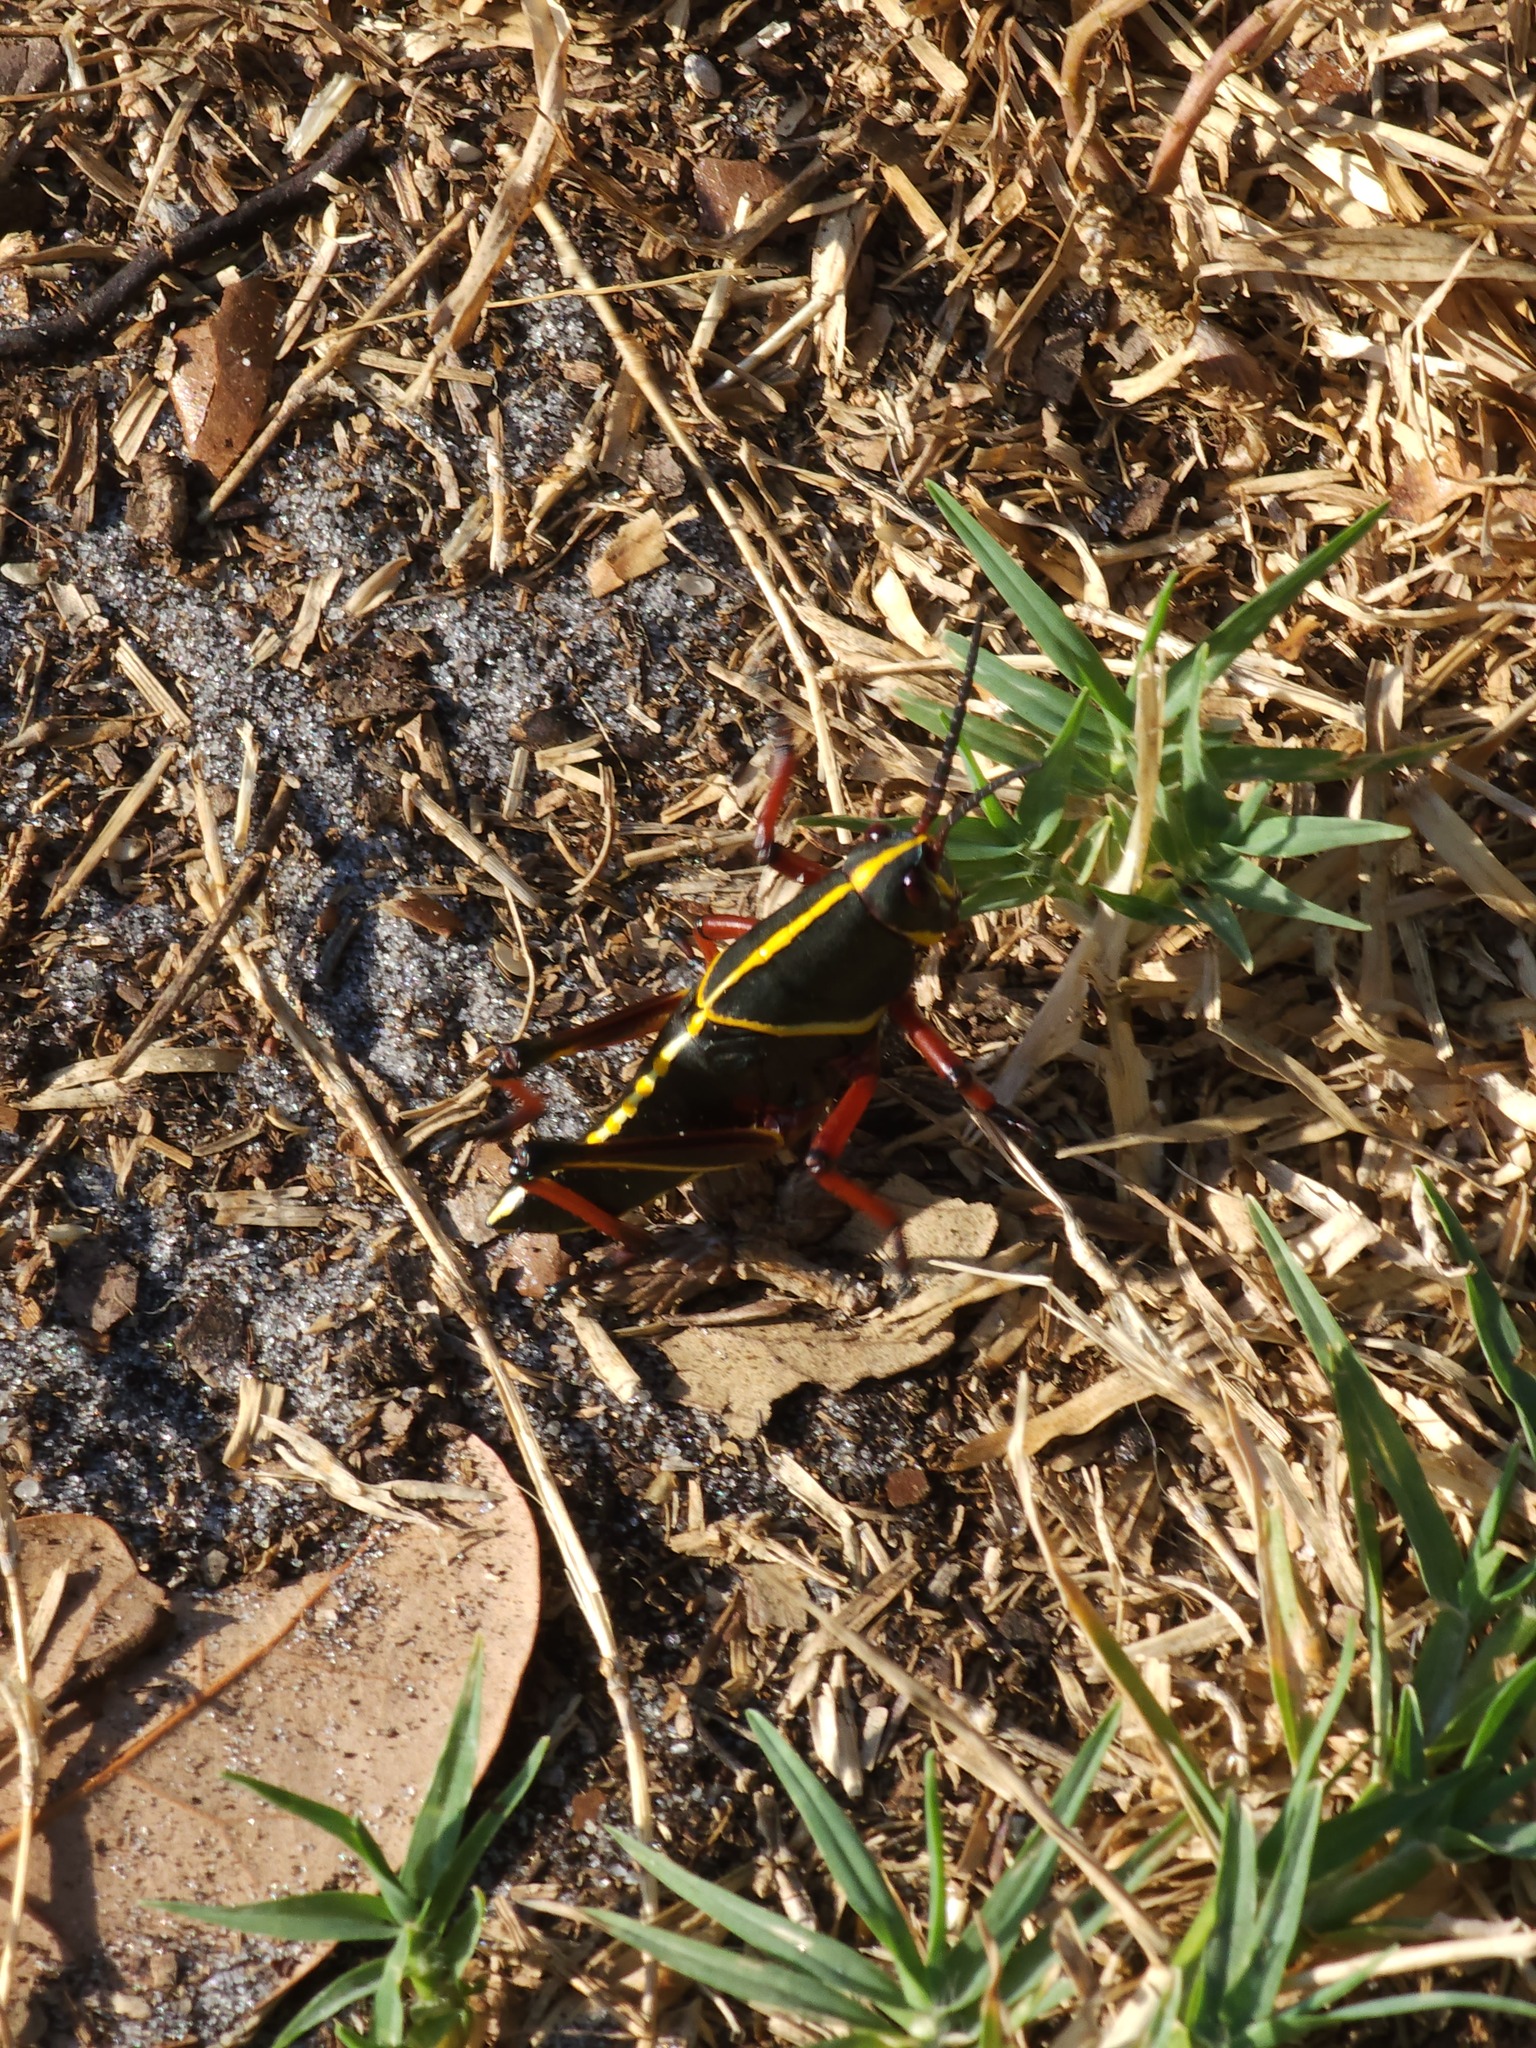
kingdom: Animalia
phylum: Arthropoda
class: Insecta
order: Orthoptera
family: Romaleidae
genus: Romalea
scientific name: Romalea microptera
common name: Eastern lubber grasshopper
